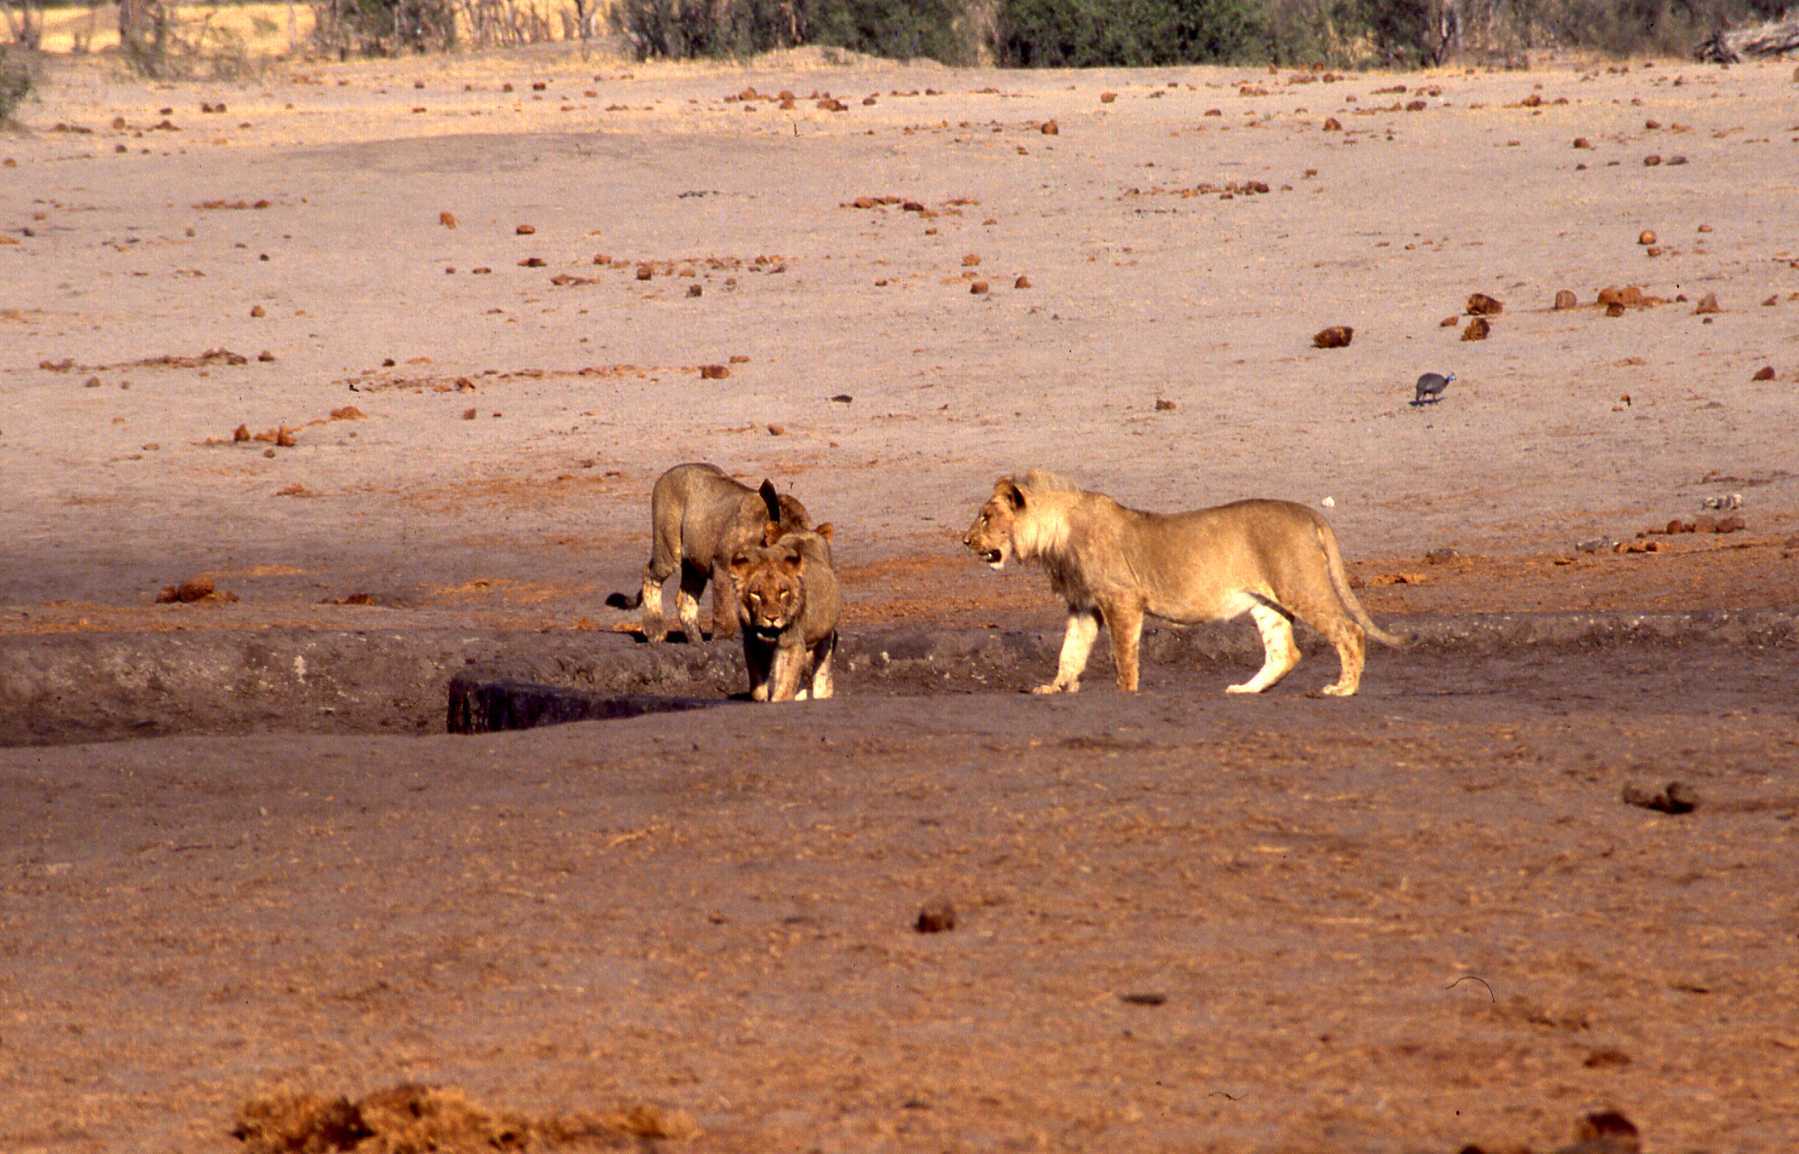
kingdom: Animalia
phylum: Chordata
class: Mammalia
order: Carnivora
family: Felidae
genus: Panthera
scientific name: Panthera leo
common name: Lion
